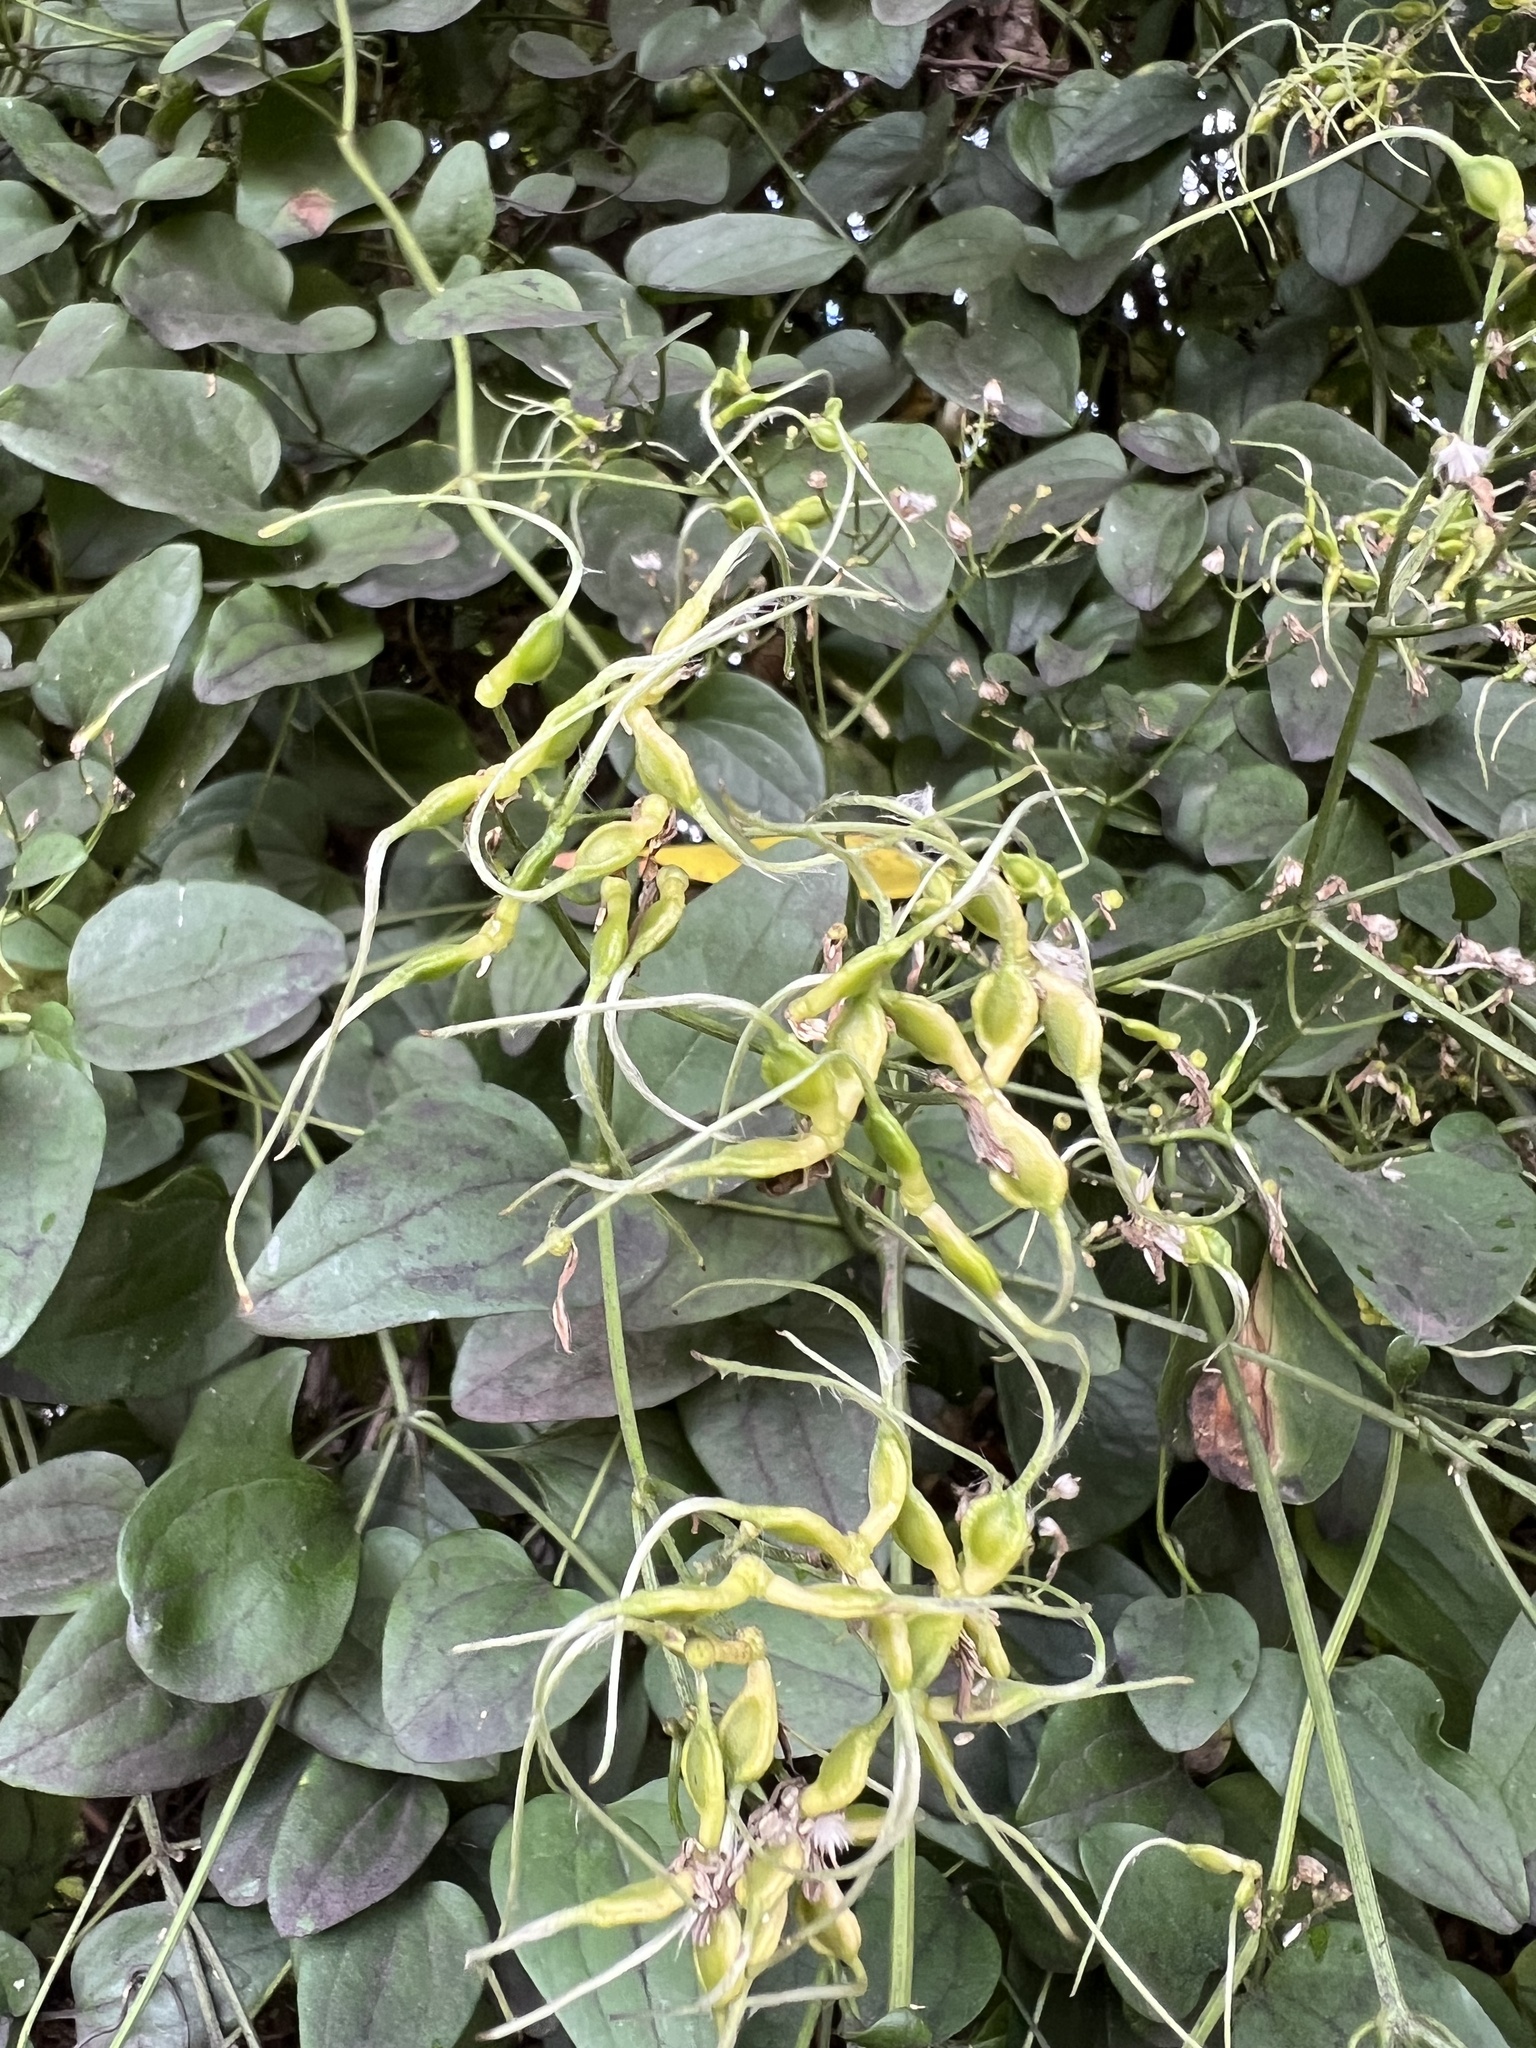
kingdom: Plantae
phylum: Tracheophyta
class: Magnoliopsida
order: Ranunculales
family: Ranunculaceae
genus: Clematis
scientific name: Clematis terniflora
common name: Sweet autumn clematis
